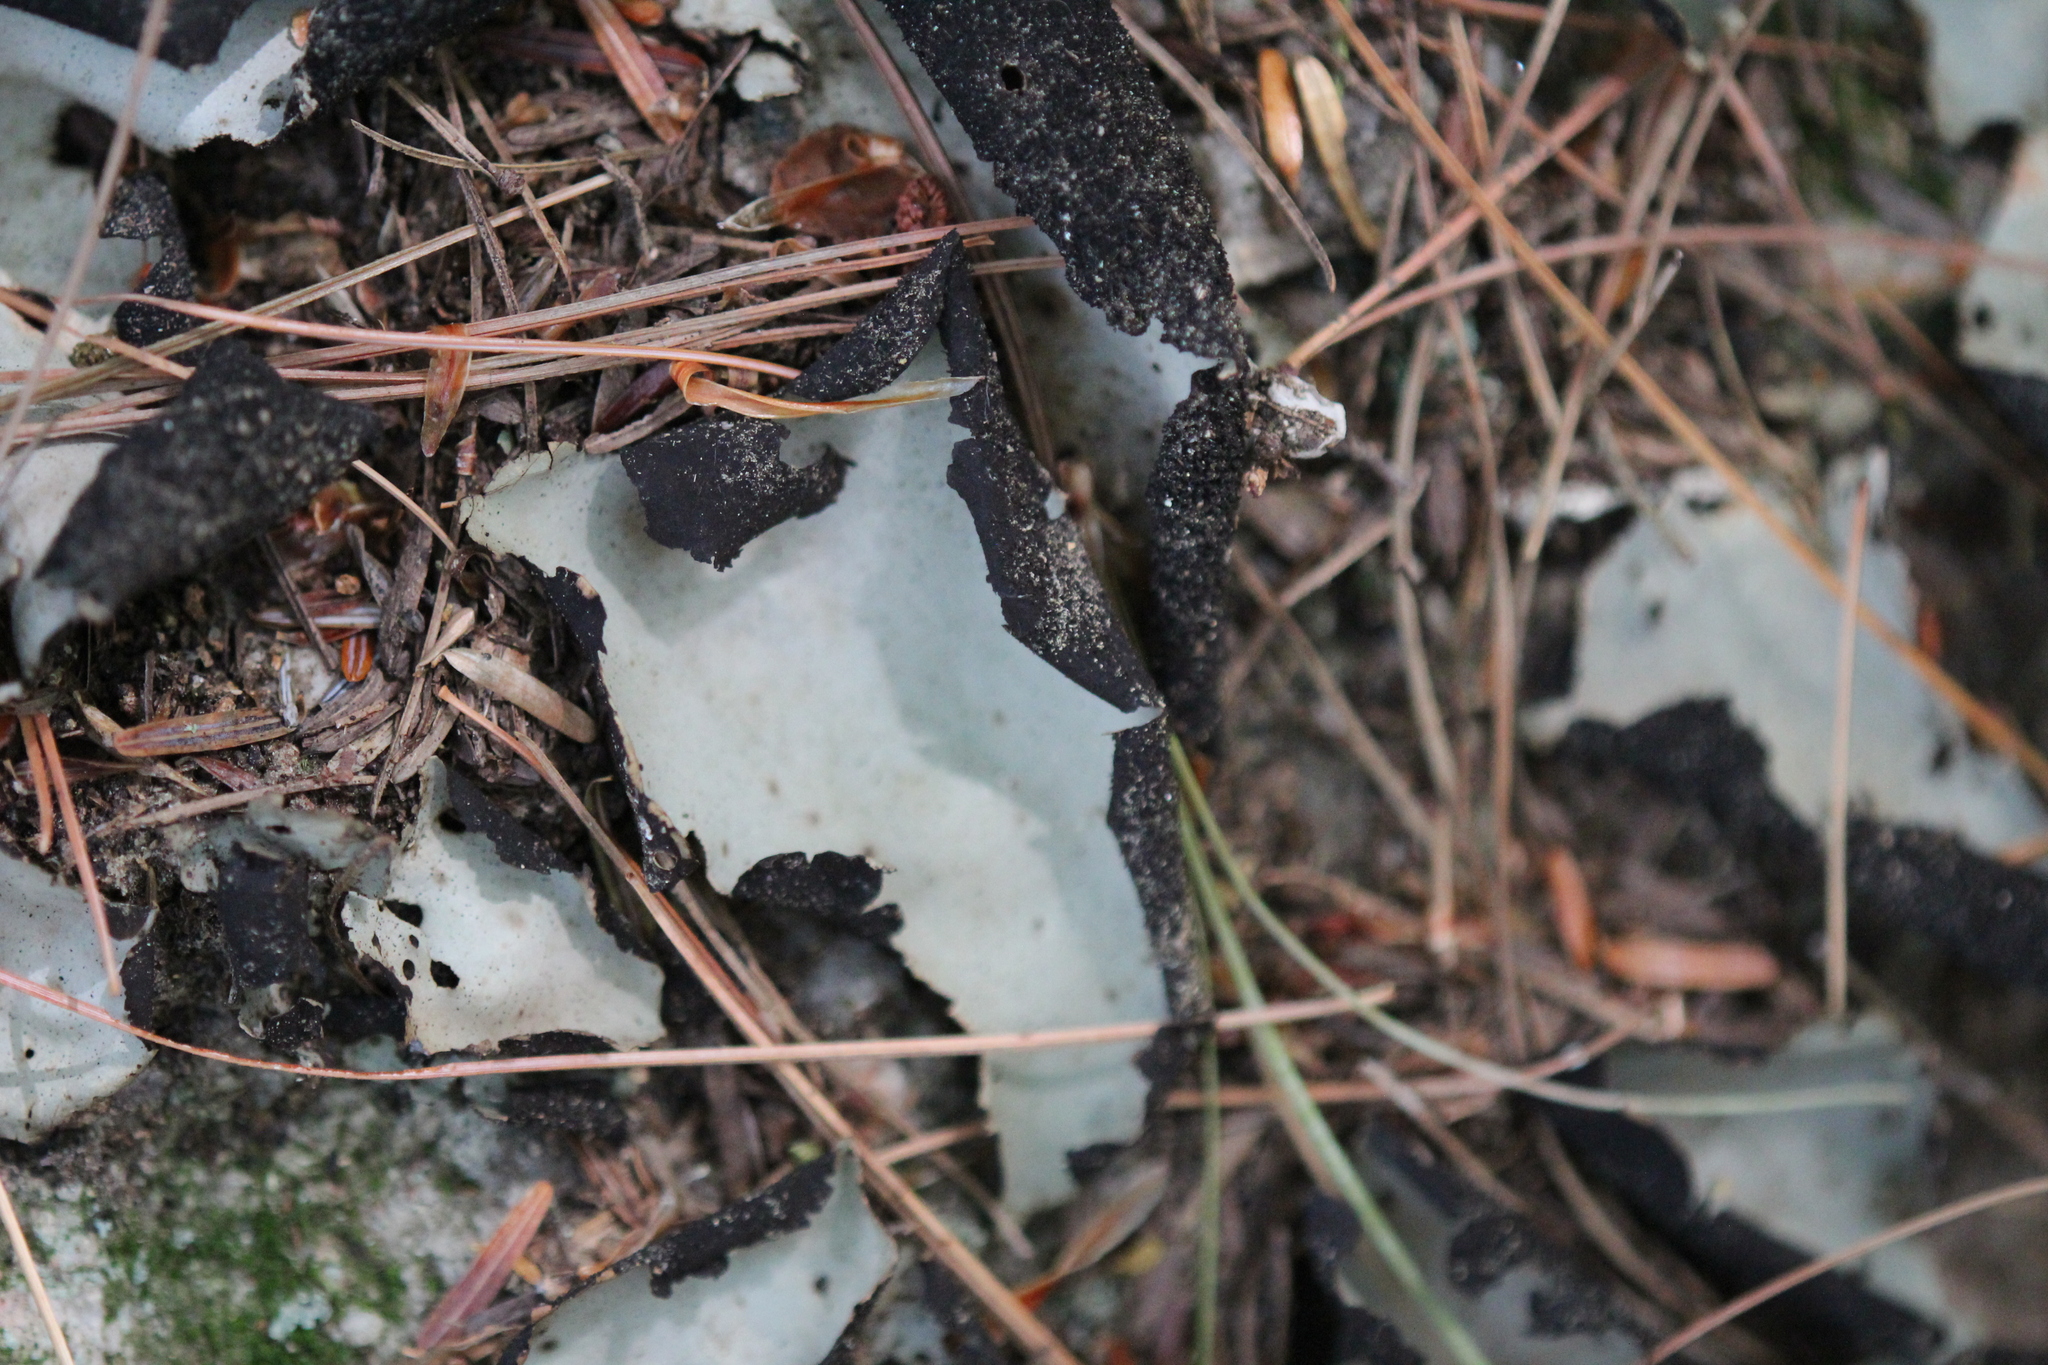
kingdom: Fungi
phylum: Ascomycota
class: Lecanoromycetes
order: Umbilicariales
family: Umbilicariaceae
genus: Umbilicaria
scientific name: Umbilicaria mammulata
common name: Smooth rock tripe
